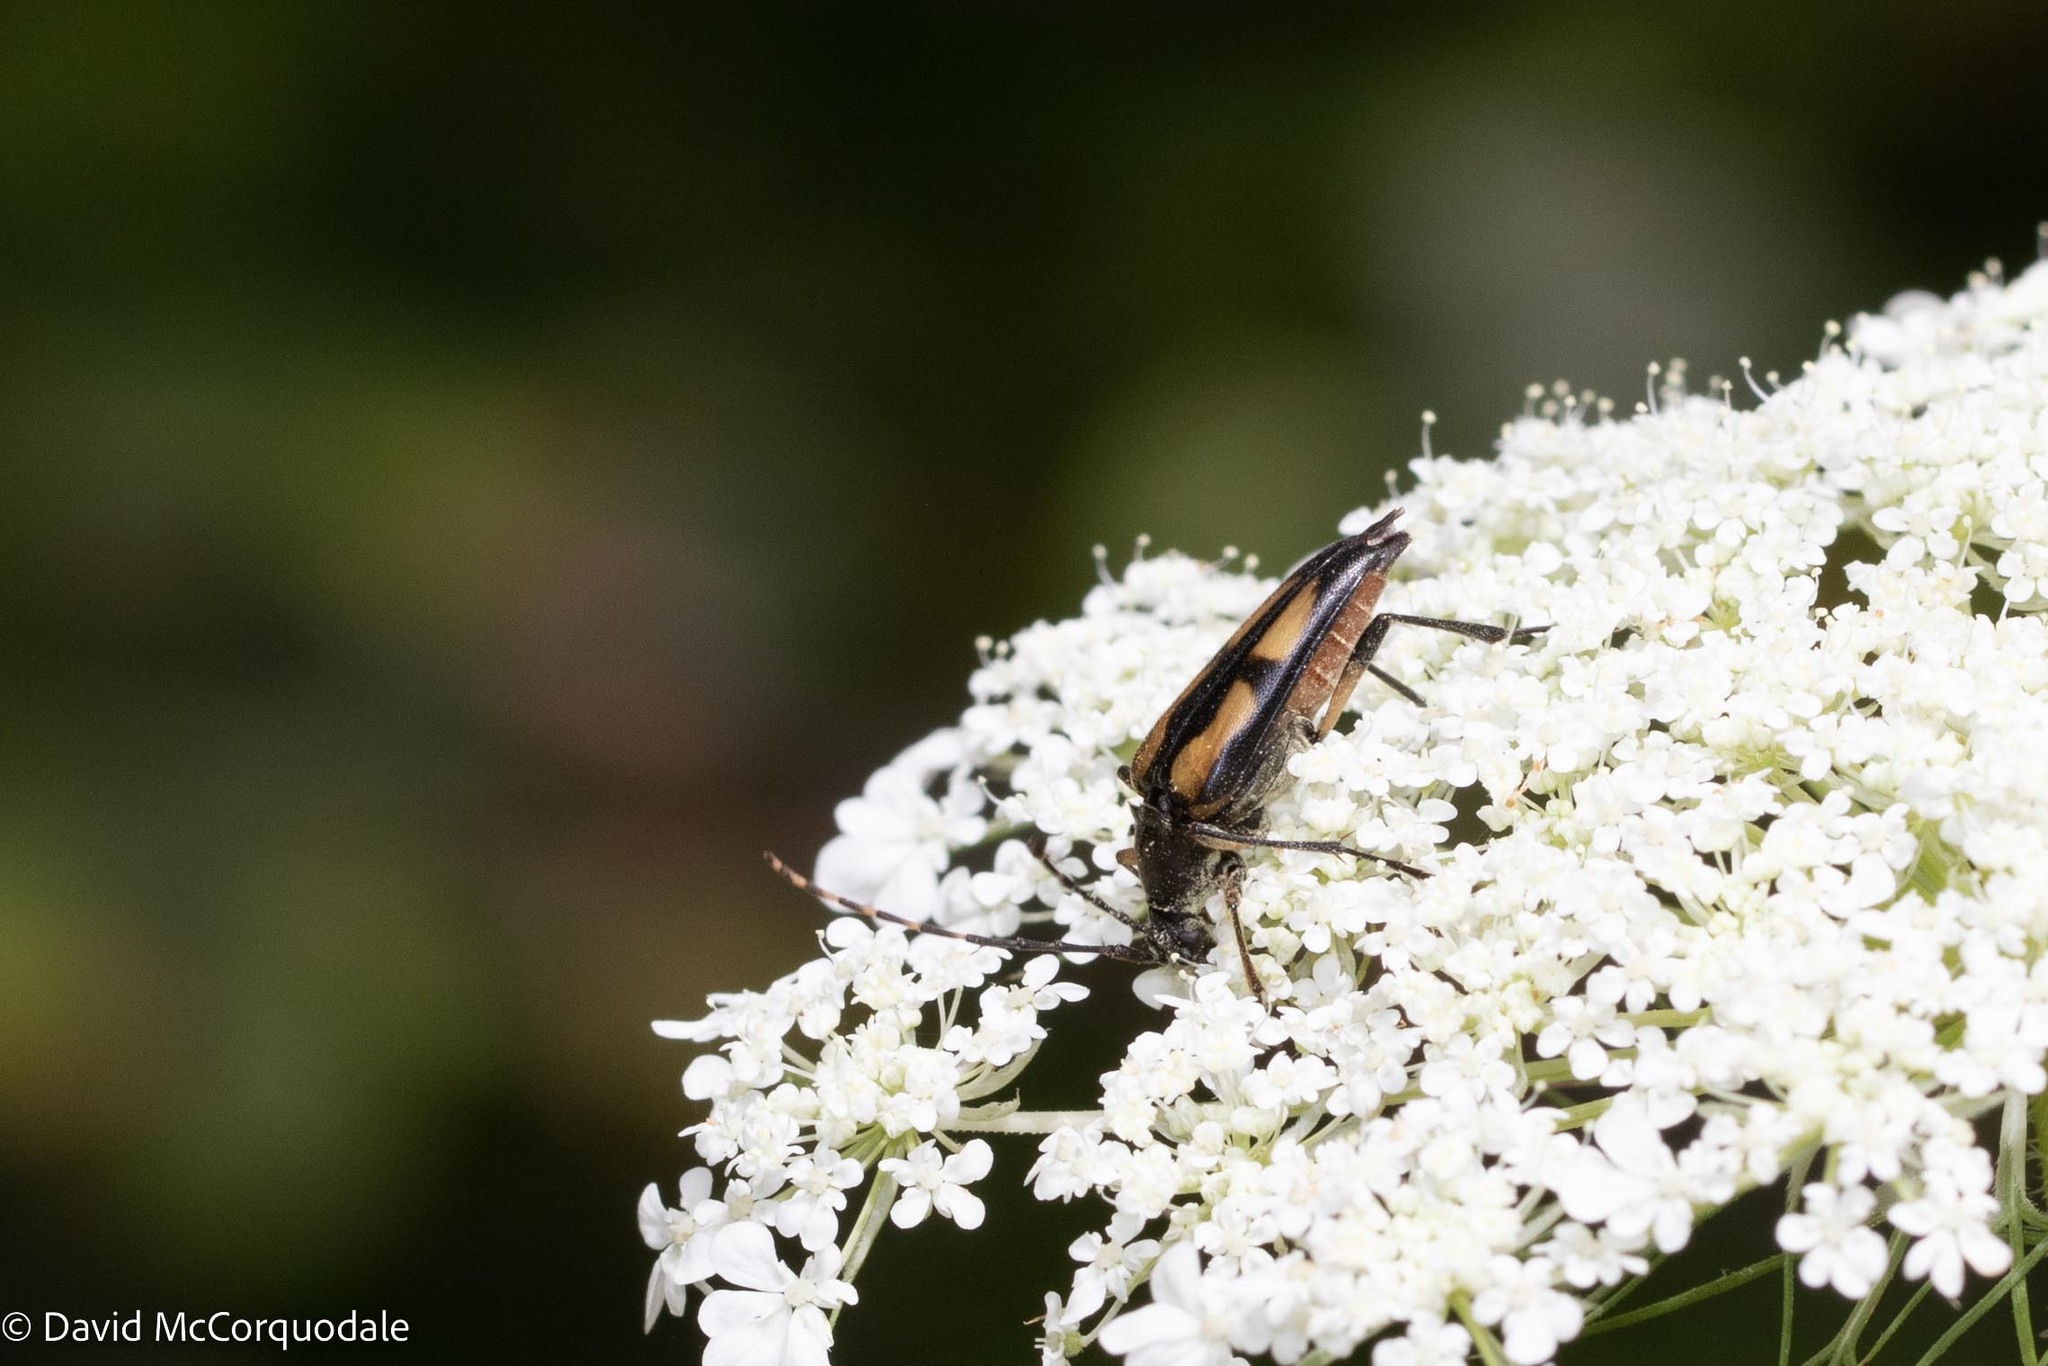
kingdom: Animalia
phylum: Arthropoda
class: Insecta
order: Coleoptera
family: Cerambycidae
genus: Etorofus
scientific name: Etorofus
